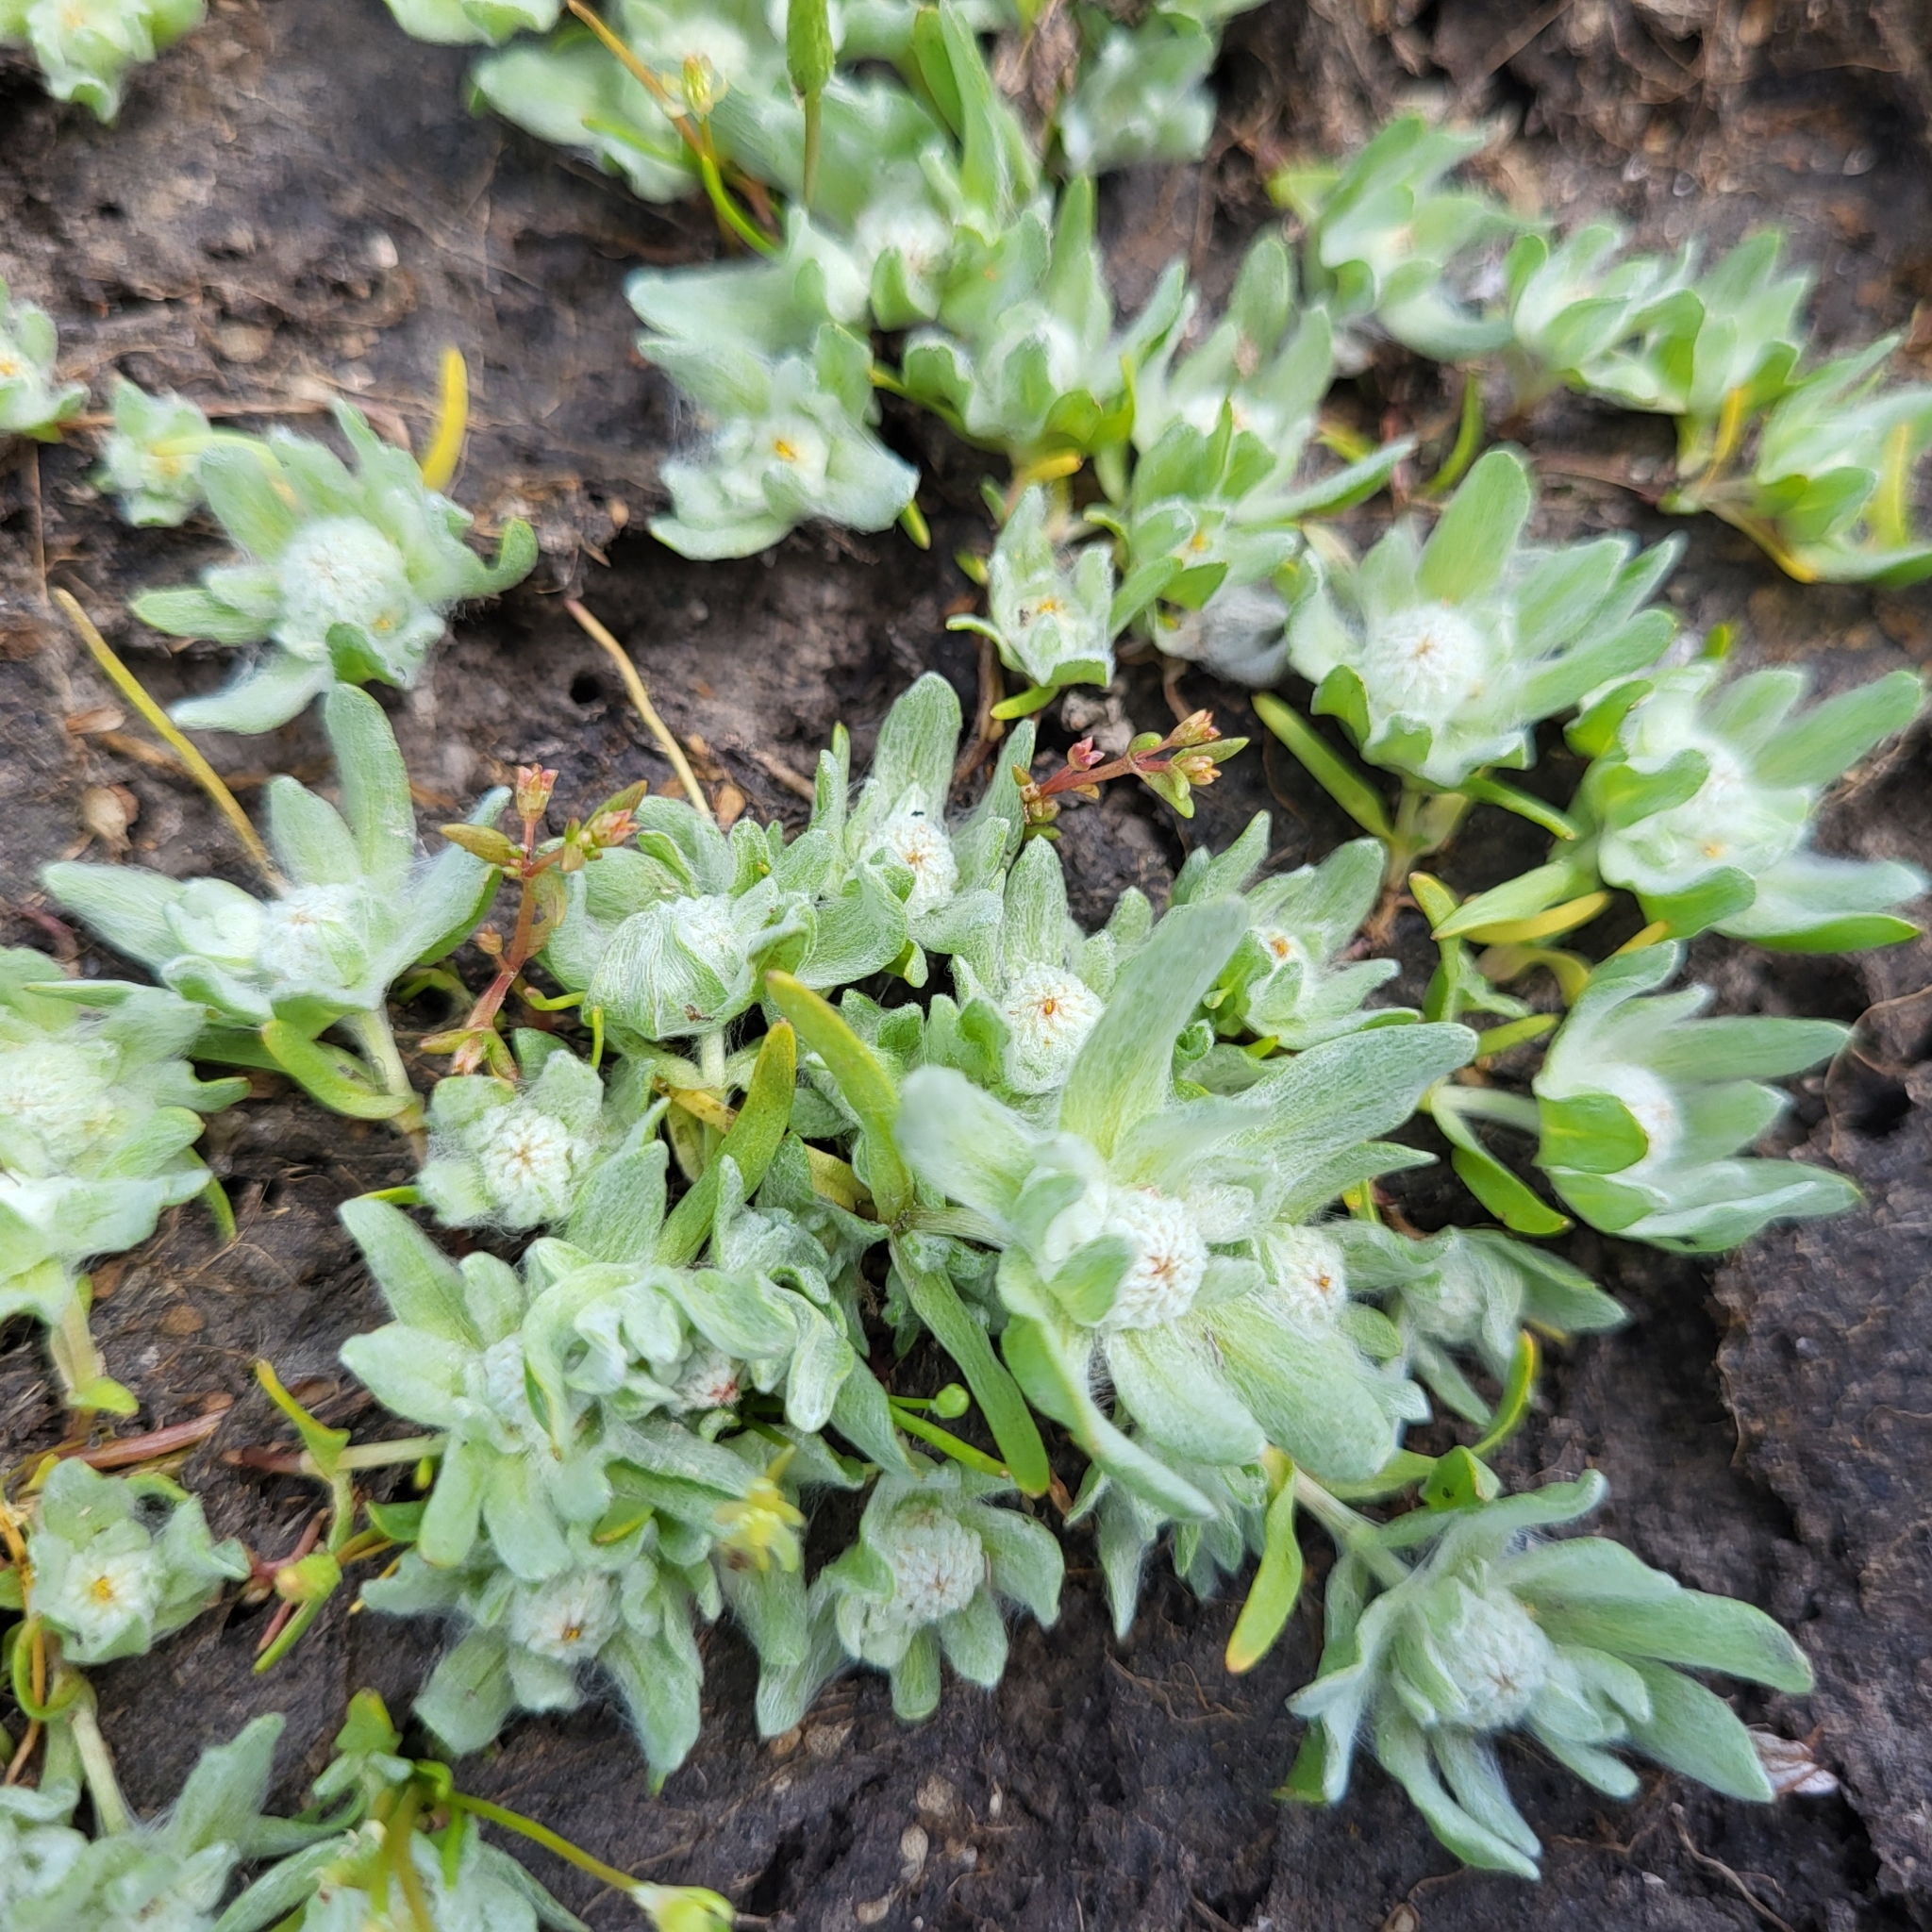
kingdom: Plantae
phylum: Tracheophyta
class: Magnoliopsida
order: Asterales
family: Asteraceae
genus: Psilocarphus
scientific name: Psilocarphus brevissimus
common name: Dwarf woollyheads
